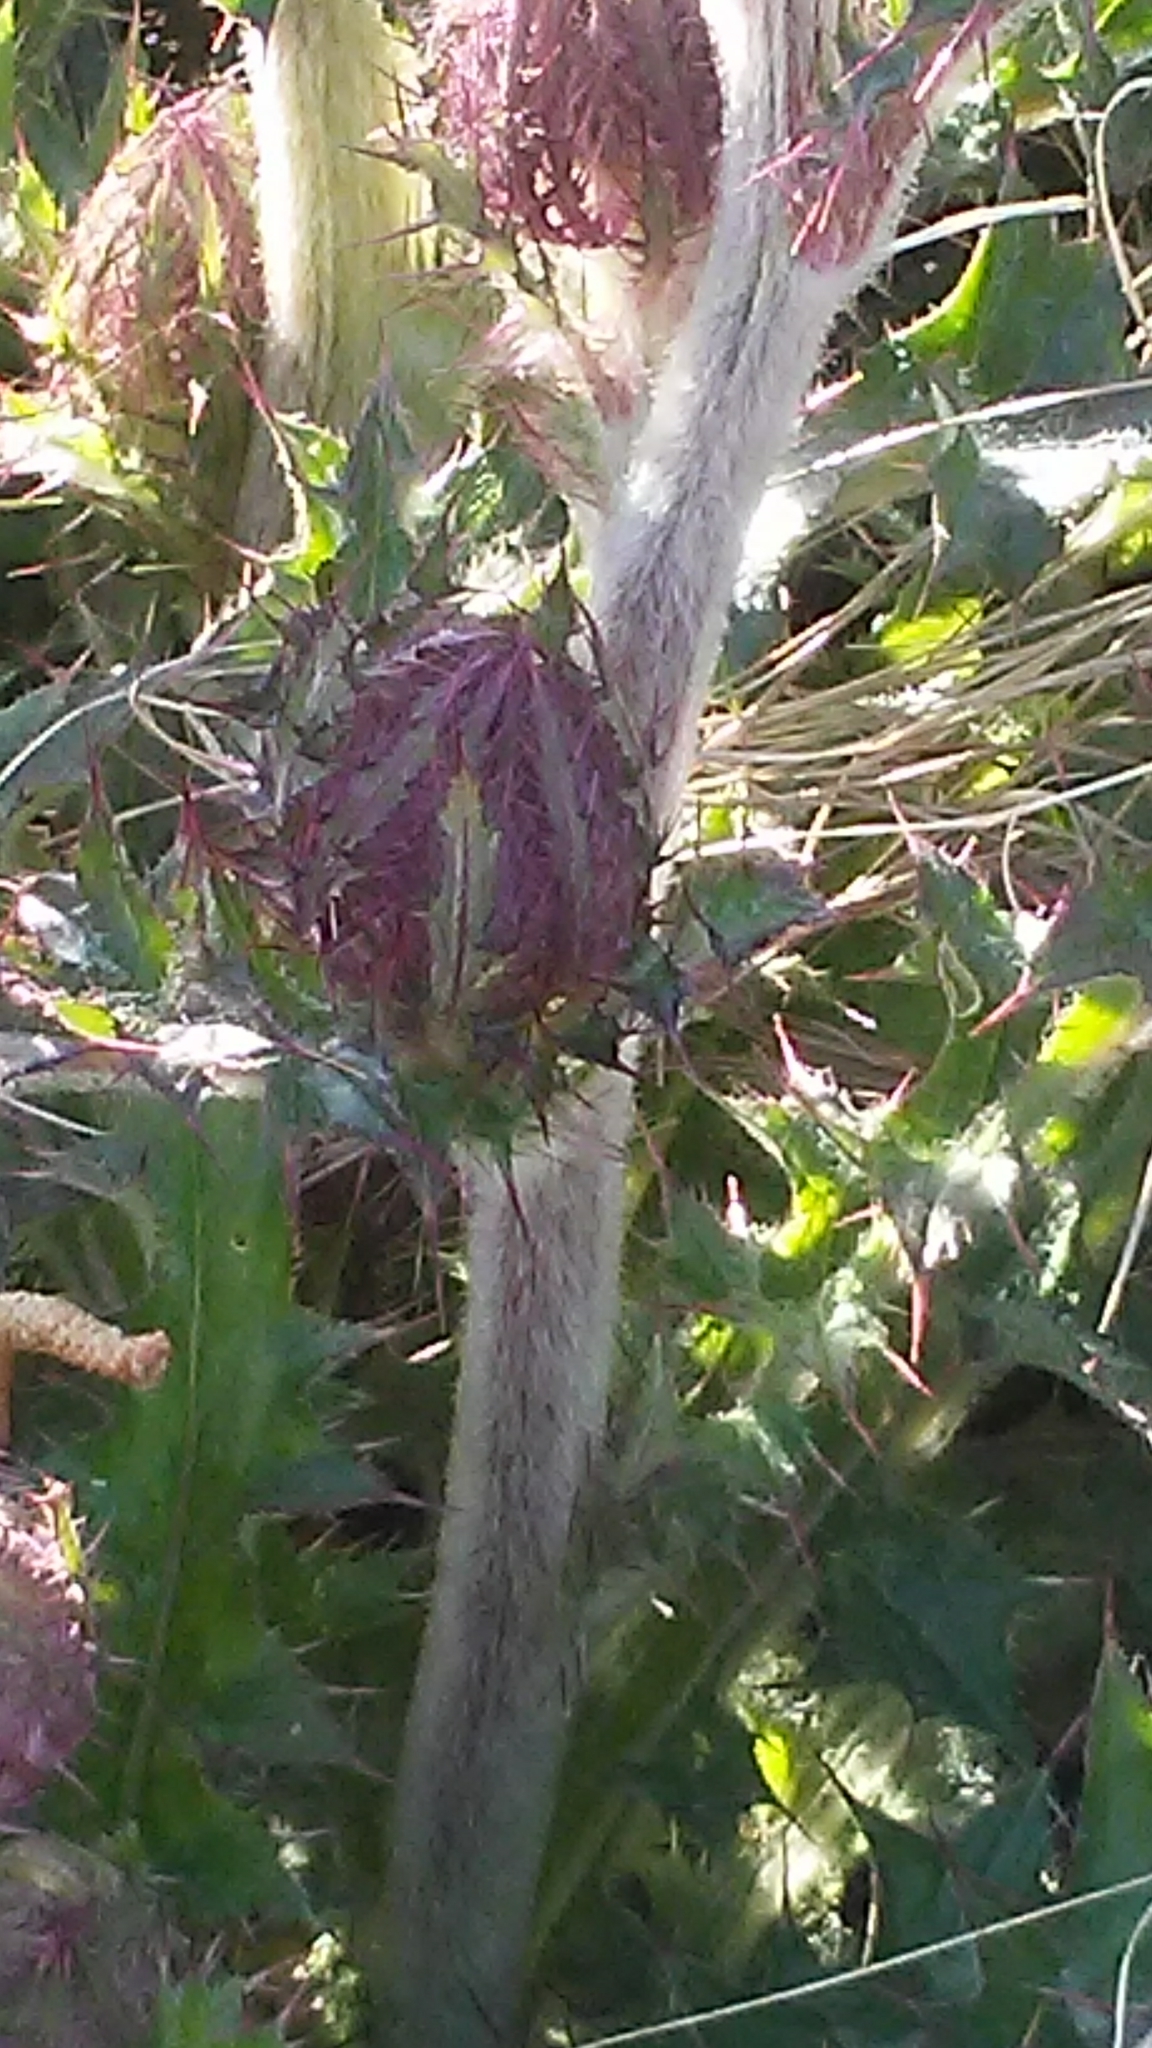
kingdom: Plantae
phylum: Tracheophyta
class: Magnoliopsida
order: Asterales
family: Asteraceae
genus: Cirsium
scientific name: Cirsium horridulum
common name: Bristly thistle
